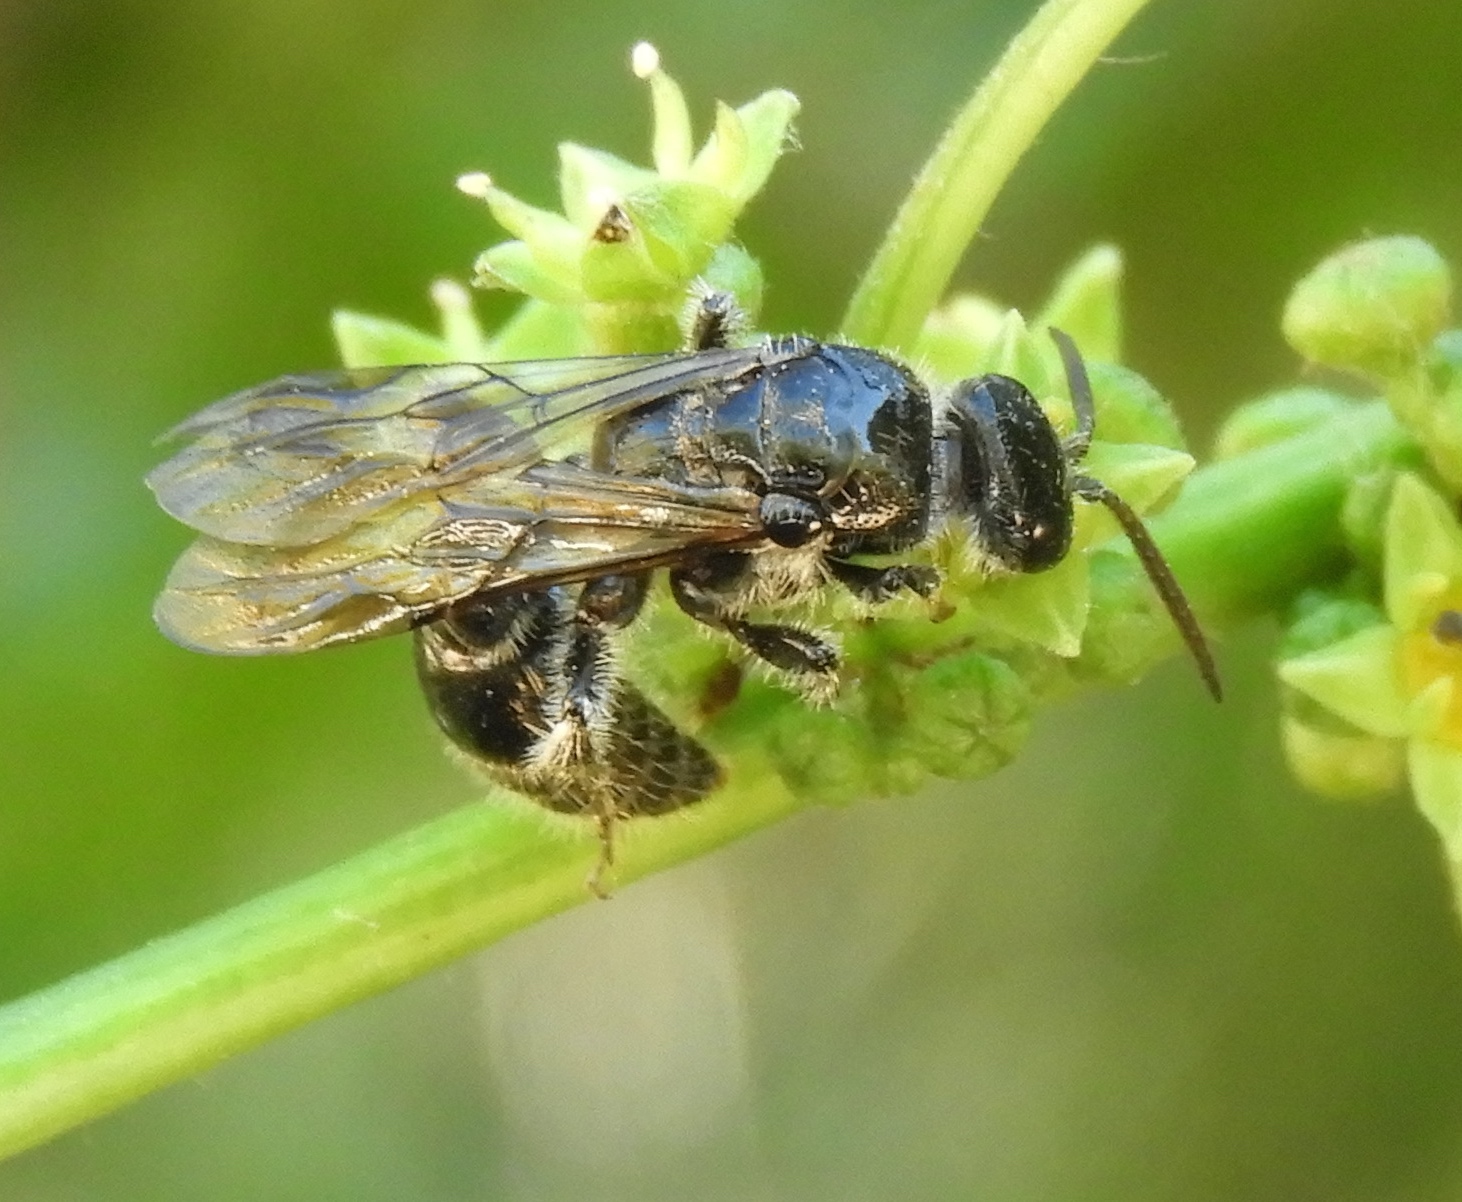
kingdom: Animalia
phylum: Arthropoda
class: Insecta
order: Hymenoptera
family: Tiphiidae
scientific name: Tiphiidae
